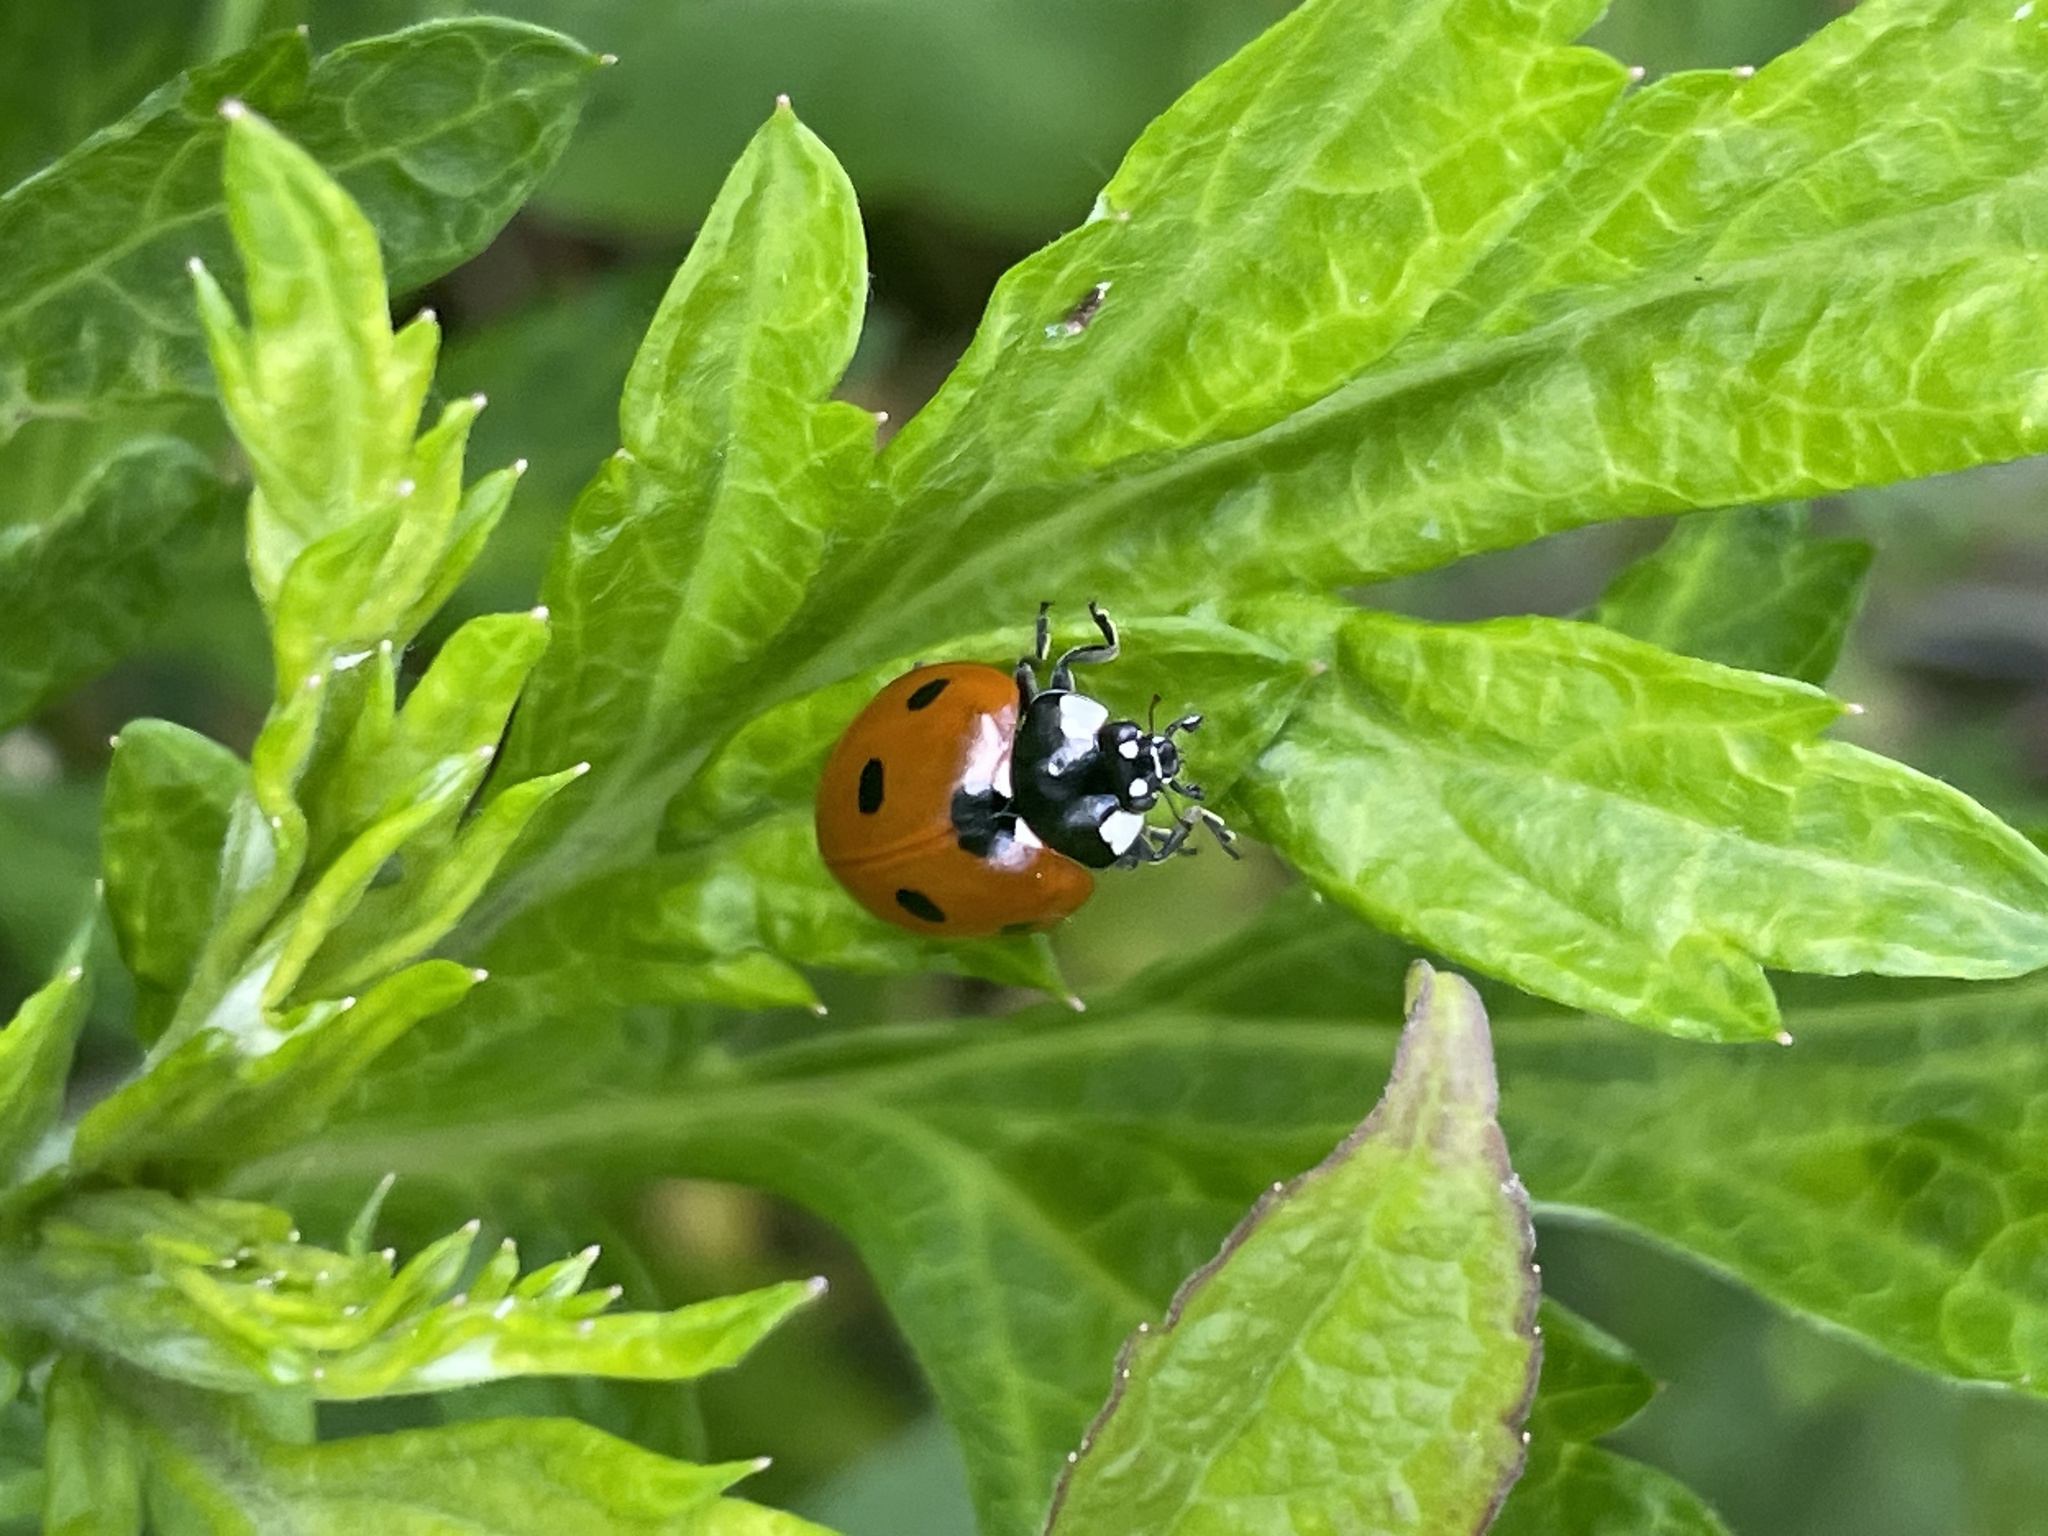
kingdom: Animalia
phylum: Arthropoda
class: Insecta
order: Coleoptera
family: Coccinellidae
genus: Coccinella
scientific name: Coccinella septempunctata
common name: Sevenspotted lady beetle
